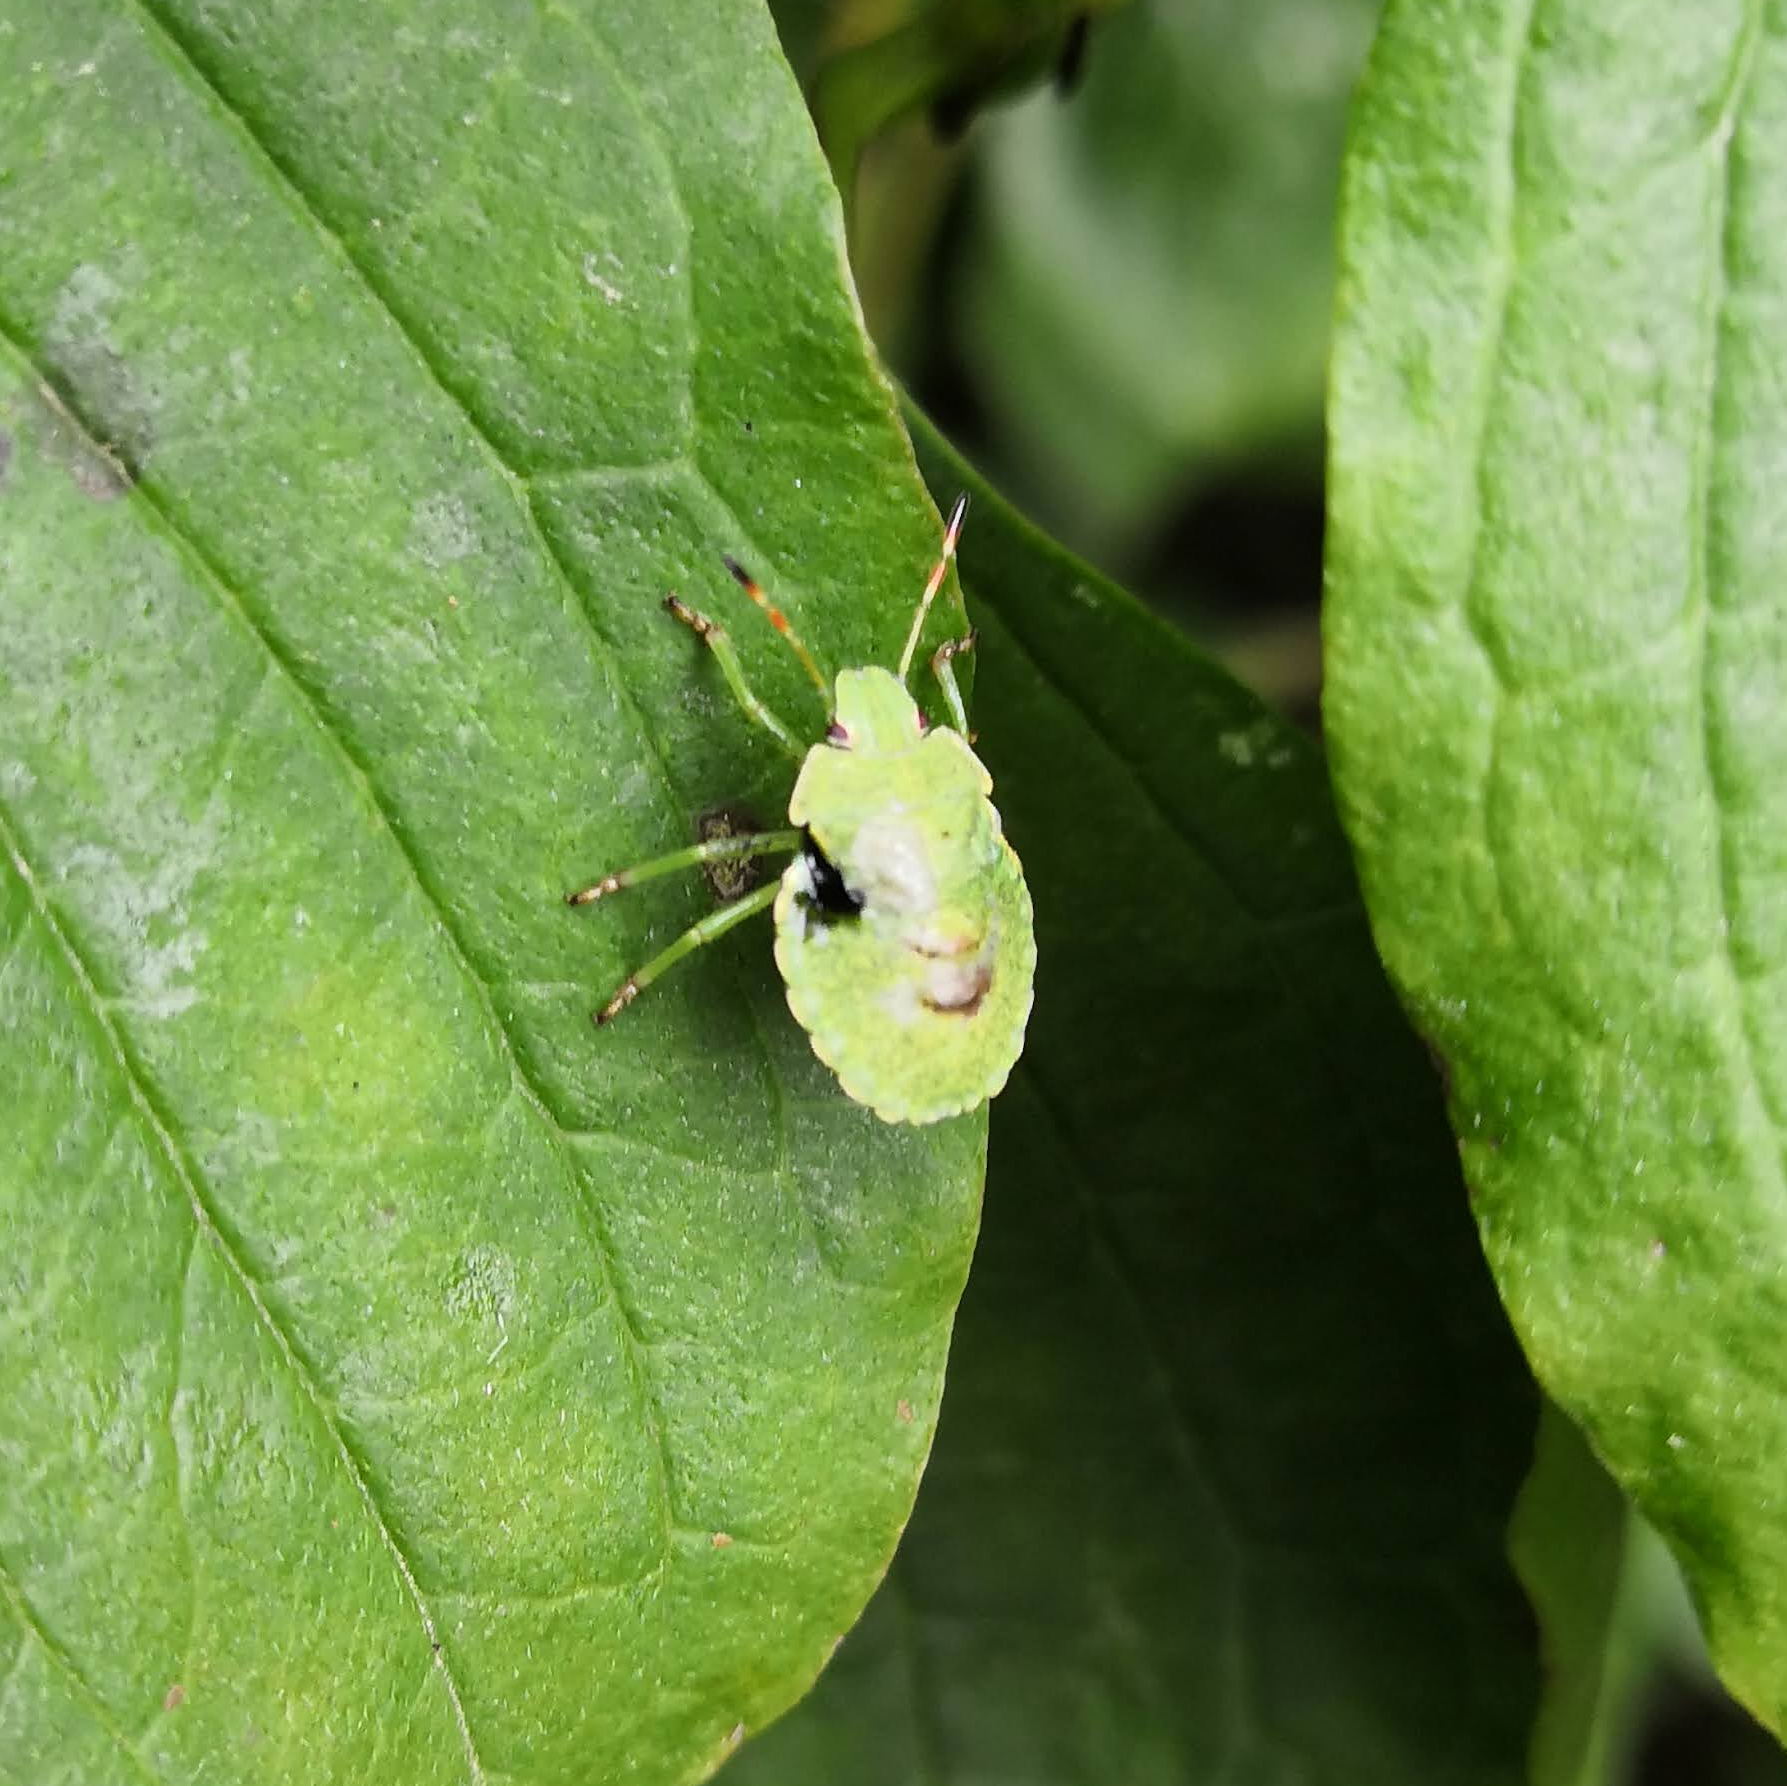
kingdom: Animalia
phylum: Arthropoda
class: Insecta
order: Hemiptera
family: Pentatomidae
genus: Palomena
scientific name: Palomena prasina
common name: Green shieldbug
